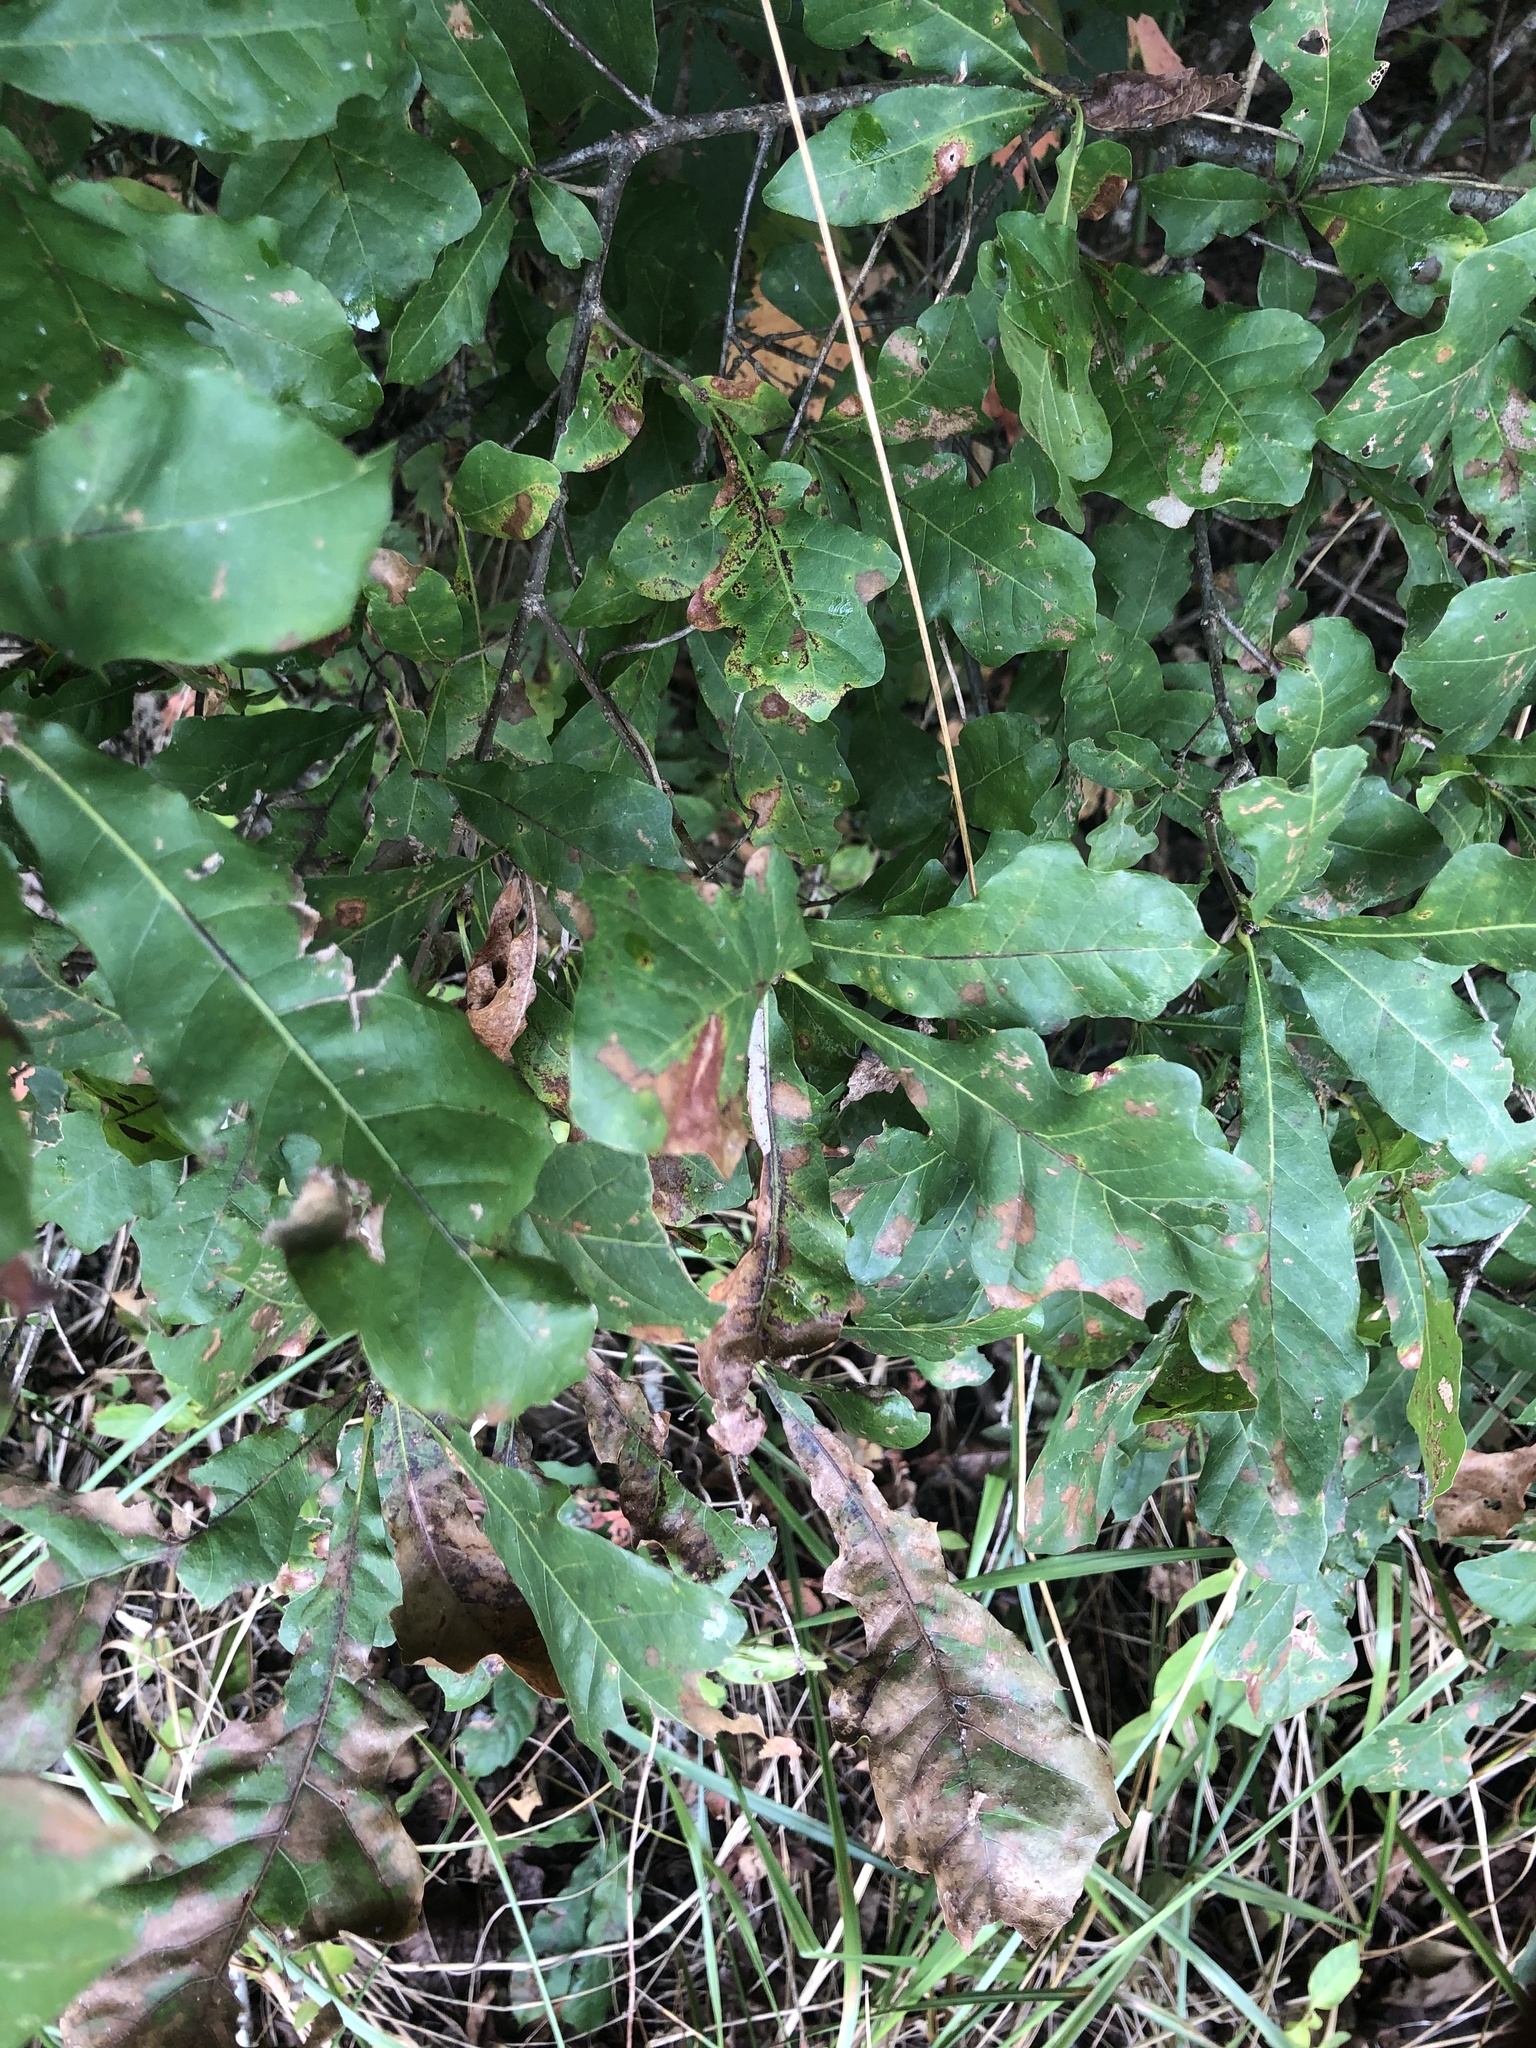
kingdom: Plantae
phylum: Tracheophyta
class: Magnoliopsida
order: Fagales
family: Fagaceae
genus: Quercus
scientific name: Quercus sinuata
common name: Durand oak
